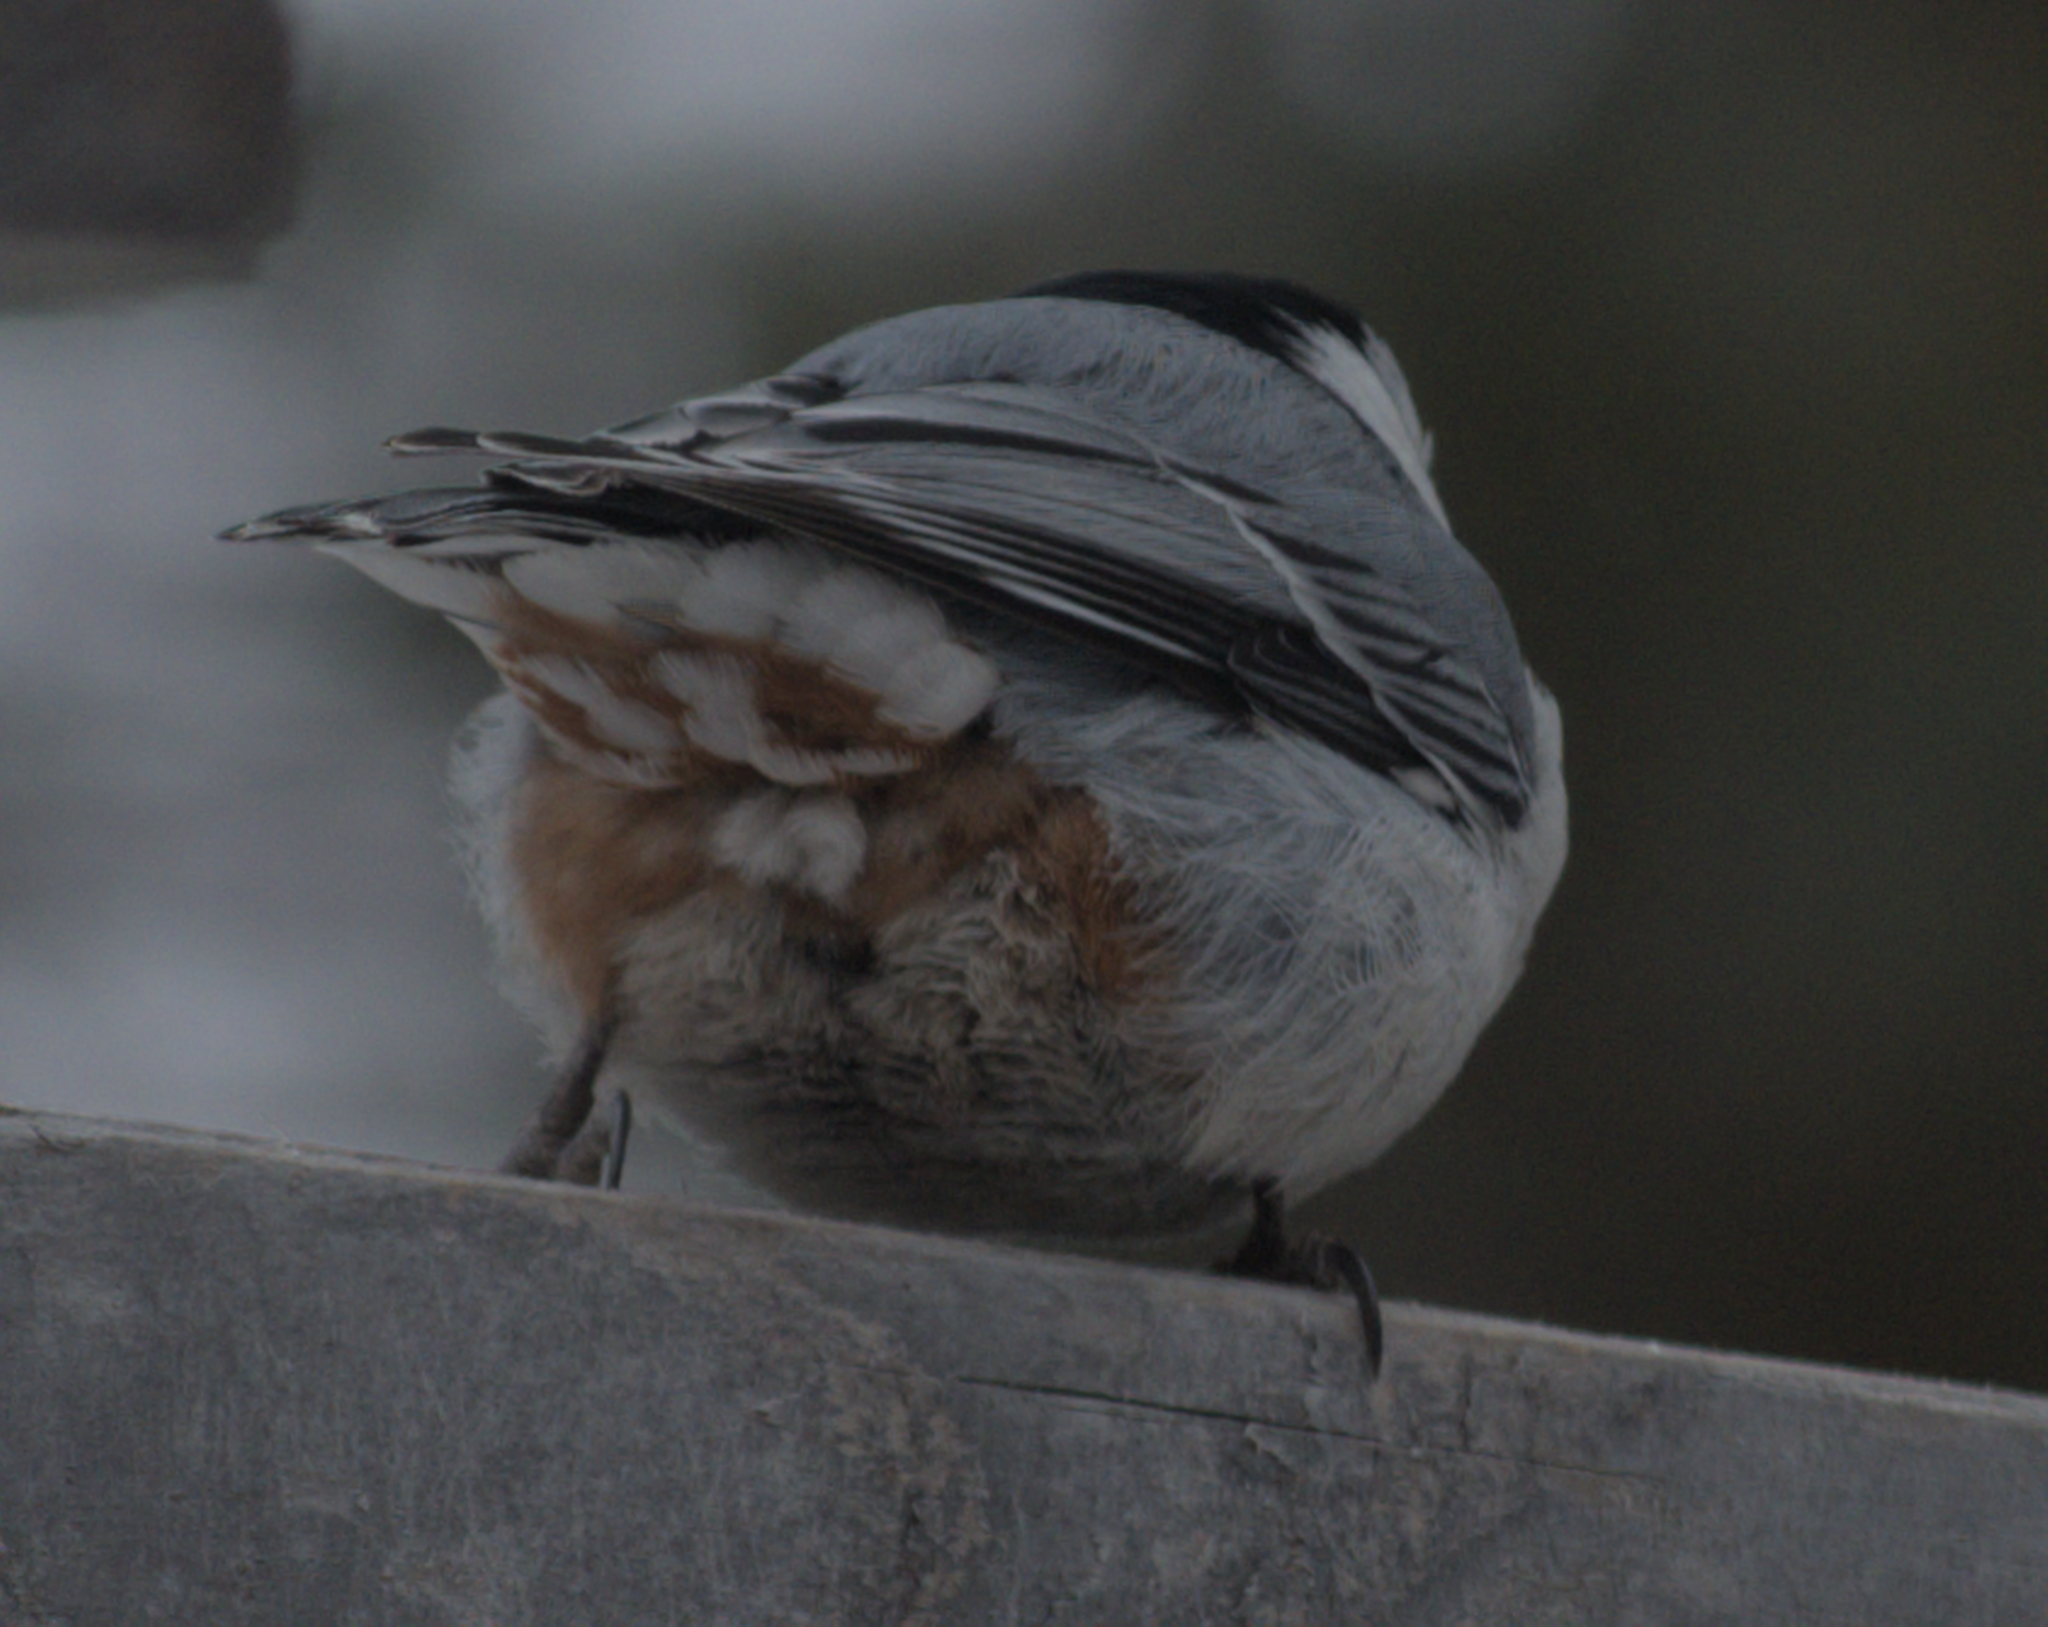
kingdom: Animalia
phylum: Chordata
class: Aves
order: Passeriformes
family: Sittidae
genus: Sitta
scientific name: Sitta carolinensis
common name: White-breasted nuthatch
